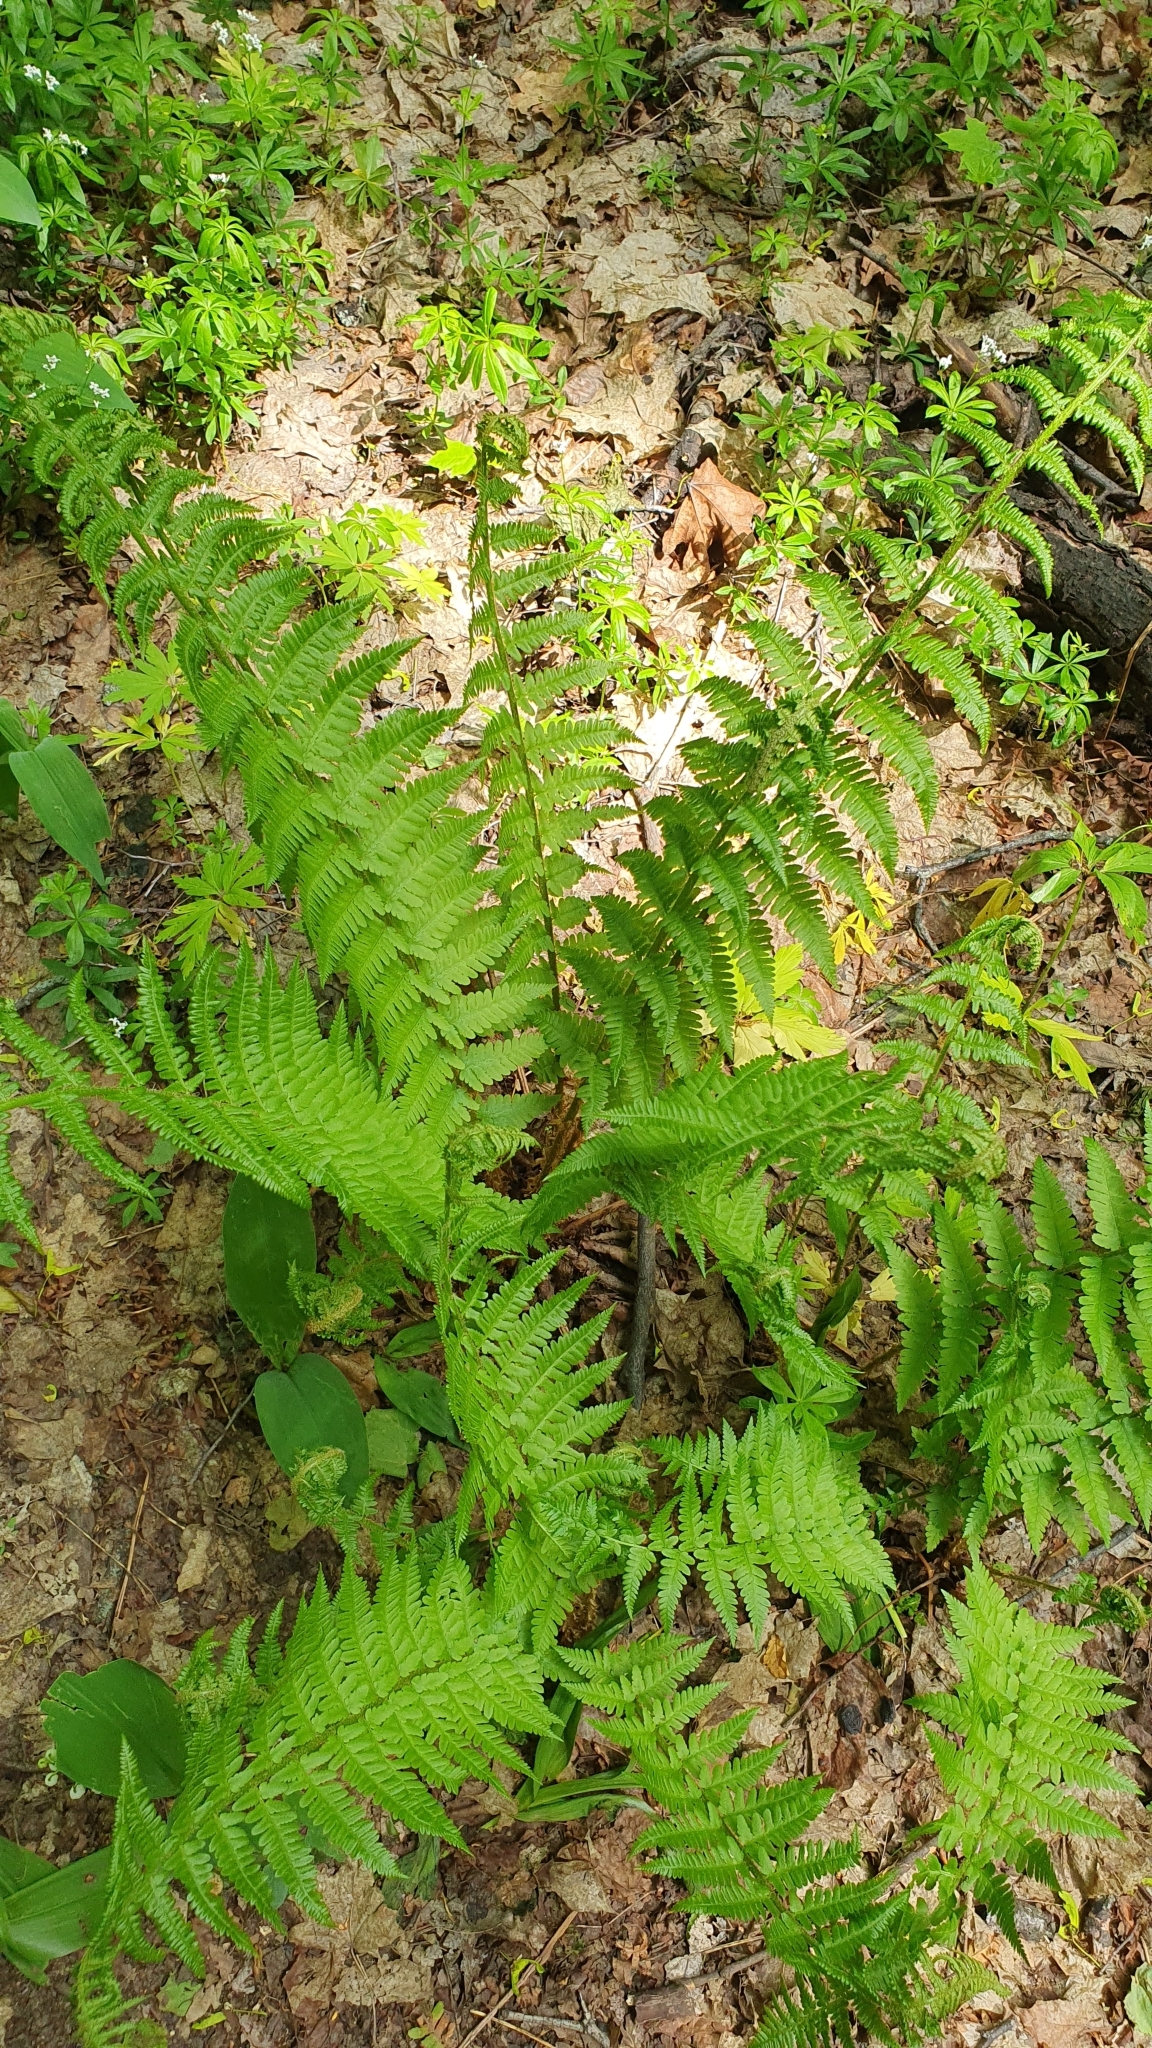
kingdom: Plantae
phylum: Tracheophyta
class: Polypodiopsida
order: Polypodiales
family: Dryopteridaceae
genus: Dryopteris
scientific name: Dryopteris filix-mas
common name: Male fern
